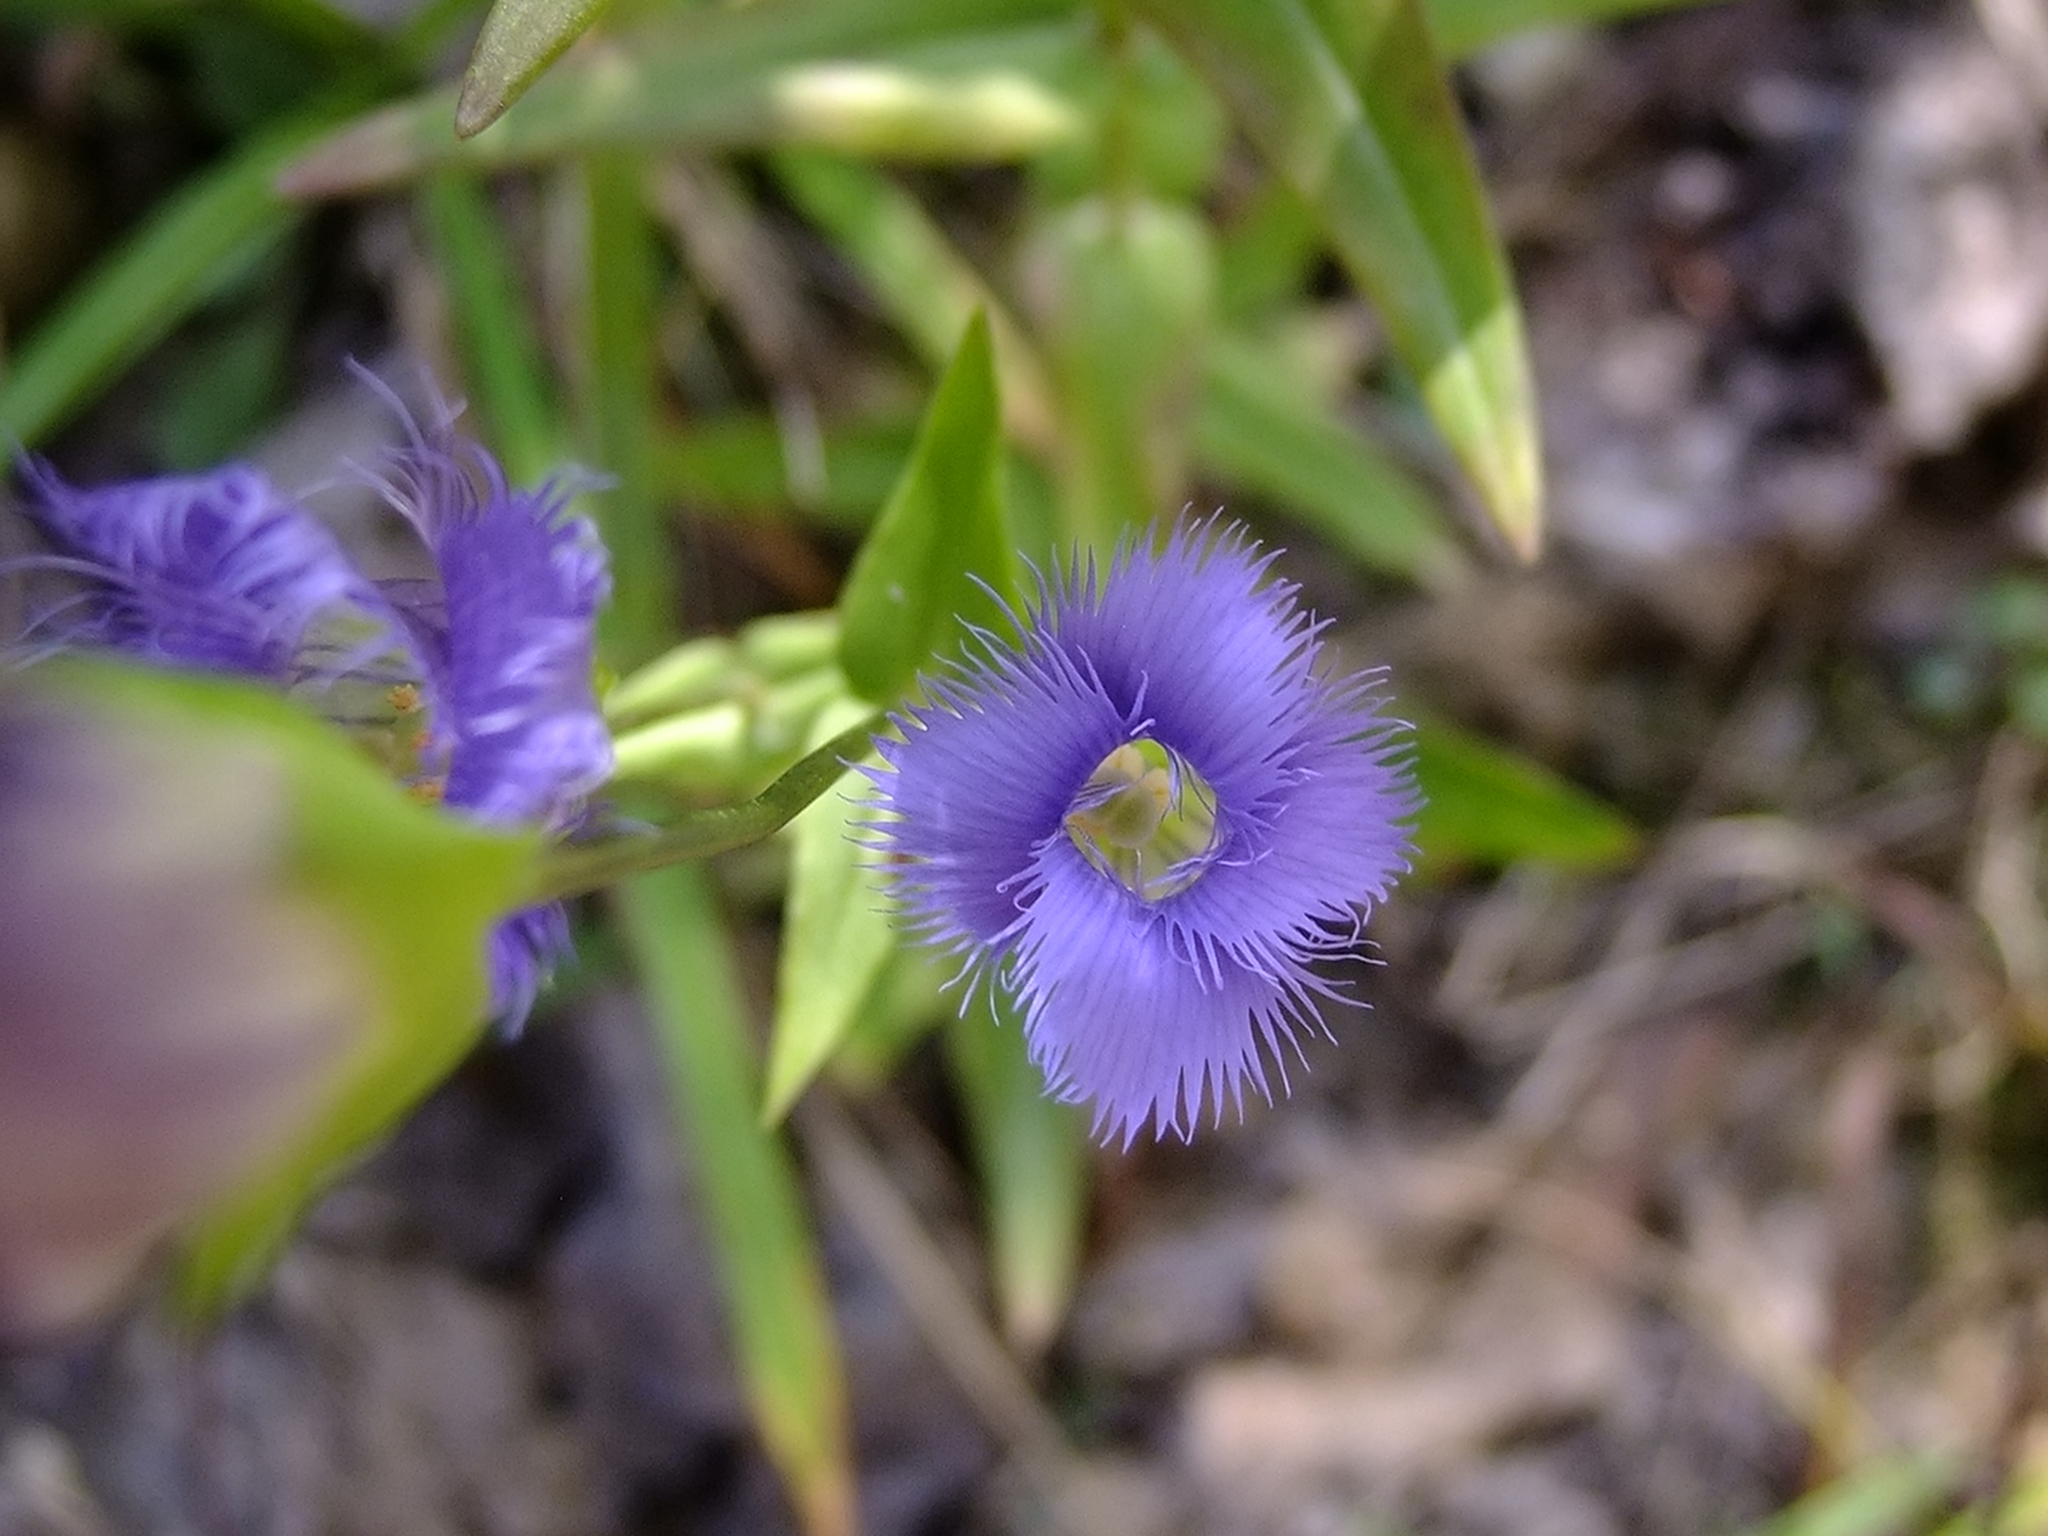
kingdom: Plantae
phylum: Tracheophyta
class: Magnoliopsida
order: Gentianales
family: Gentianaceae
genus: Gentianopsis
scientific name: Gentianopsis crinita
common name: Fringed-gentian
